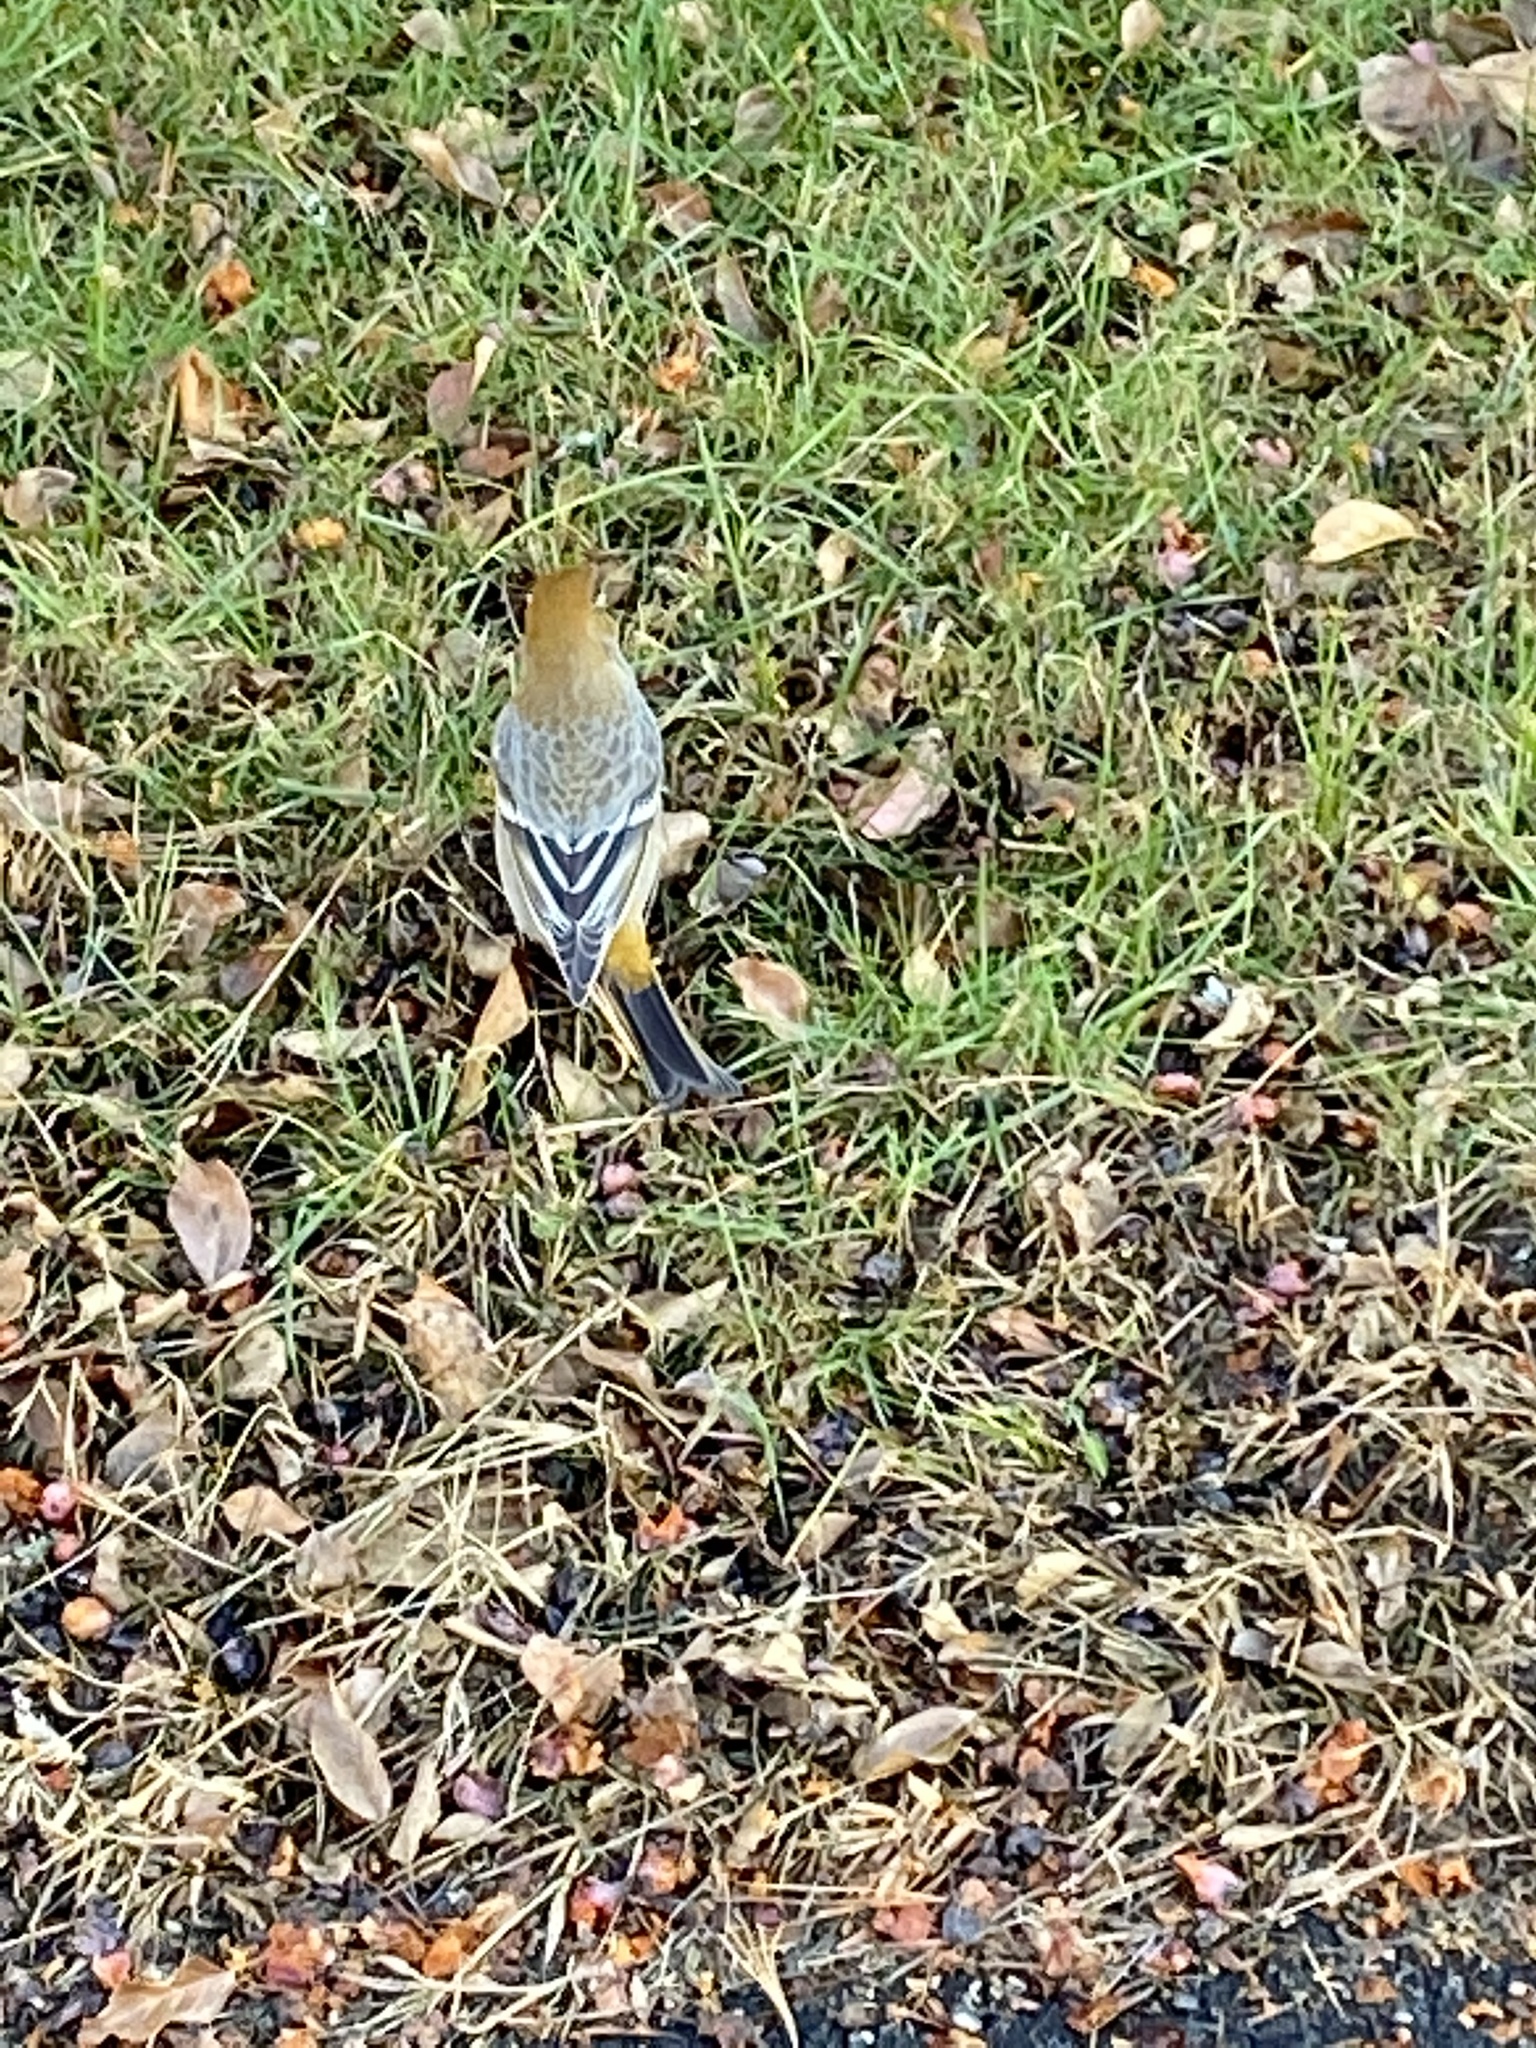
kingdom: Animalia
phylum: Chordata
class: Aves
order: Passeriformes
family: Fringillidae
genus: Pinicola
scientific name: Pinicola enucleator
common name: Pine grosbeak
